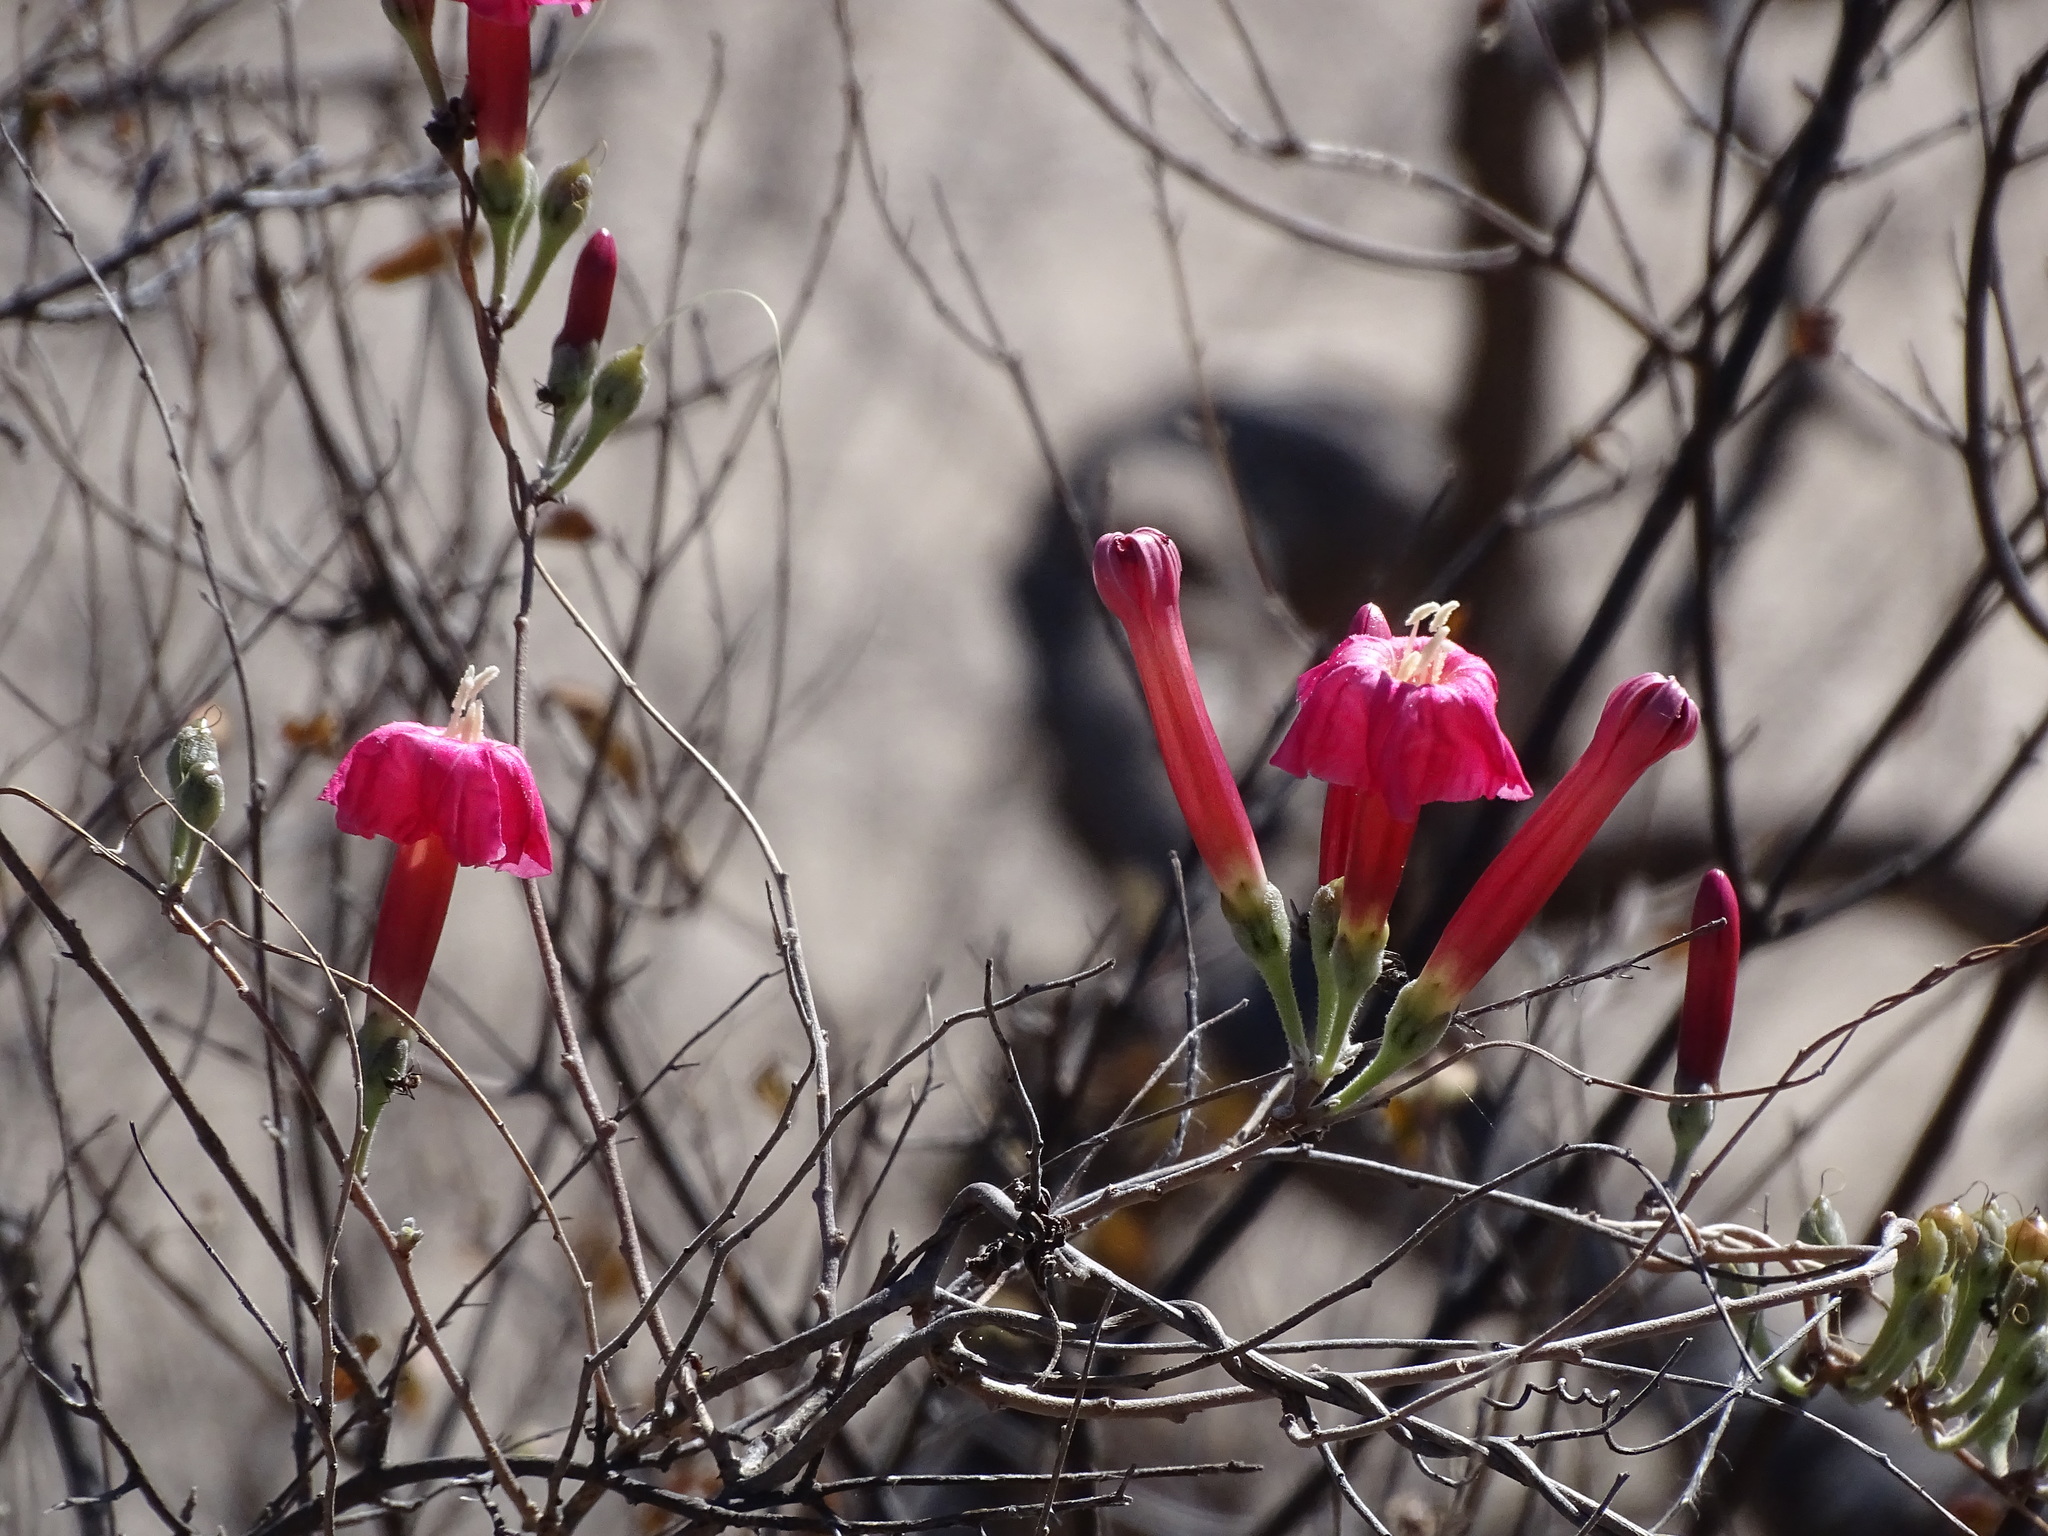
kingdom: Plantae
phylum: Tracheophyta
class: Magnoliopsida
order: Solanales
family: Convolvulaceae
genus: Ipomoea
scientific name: Ipomoea conzattii
